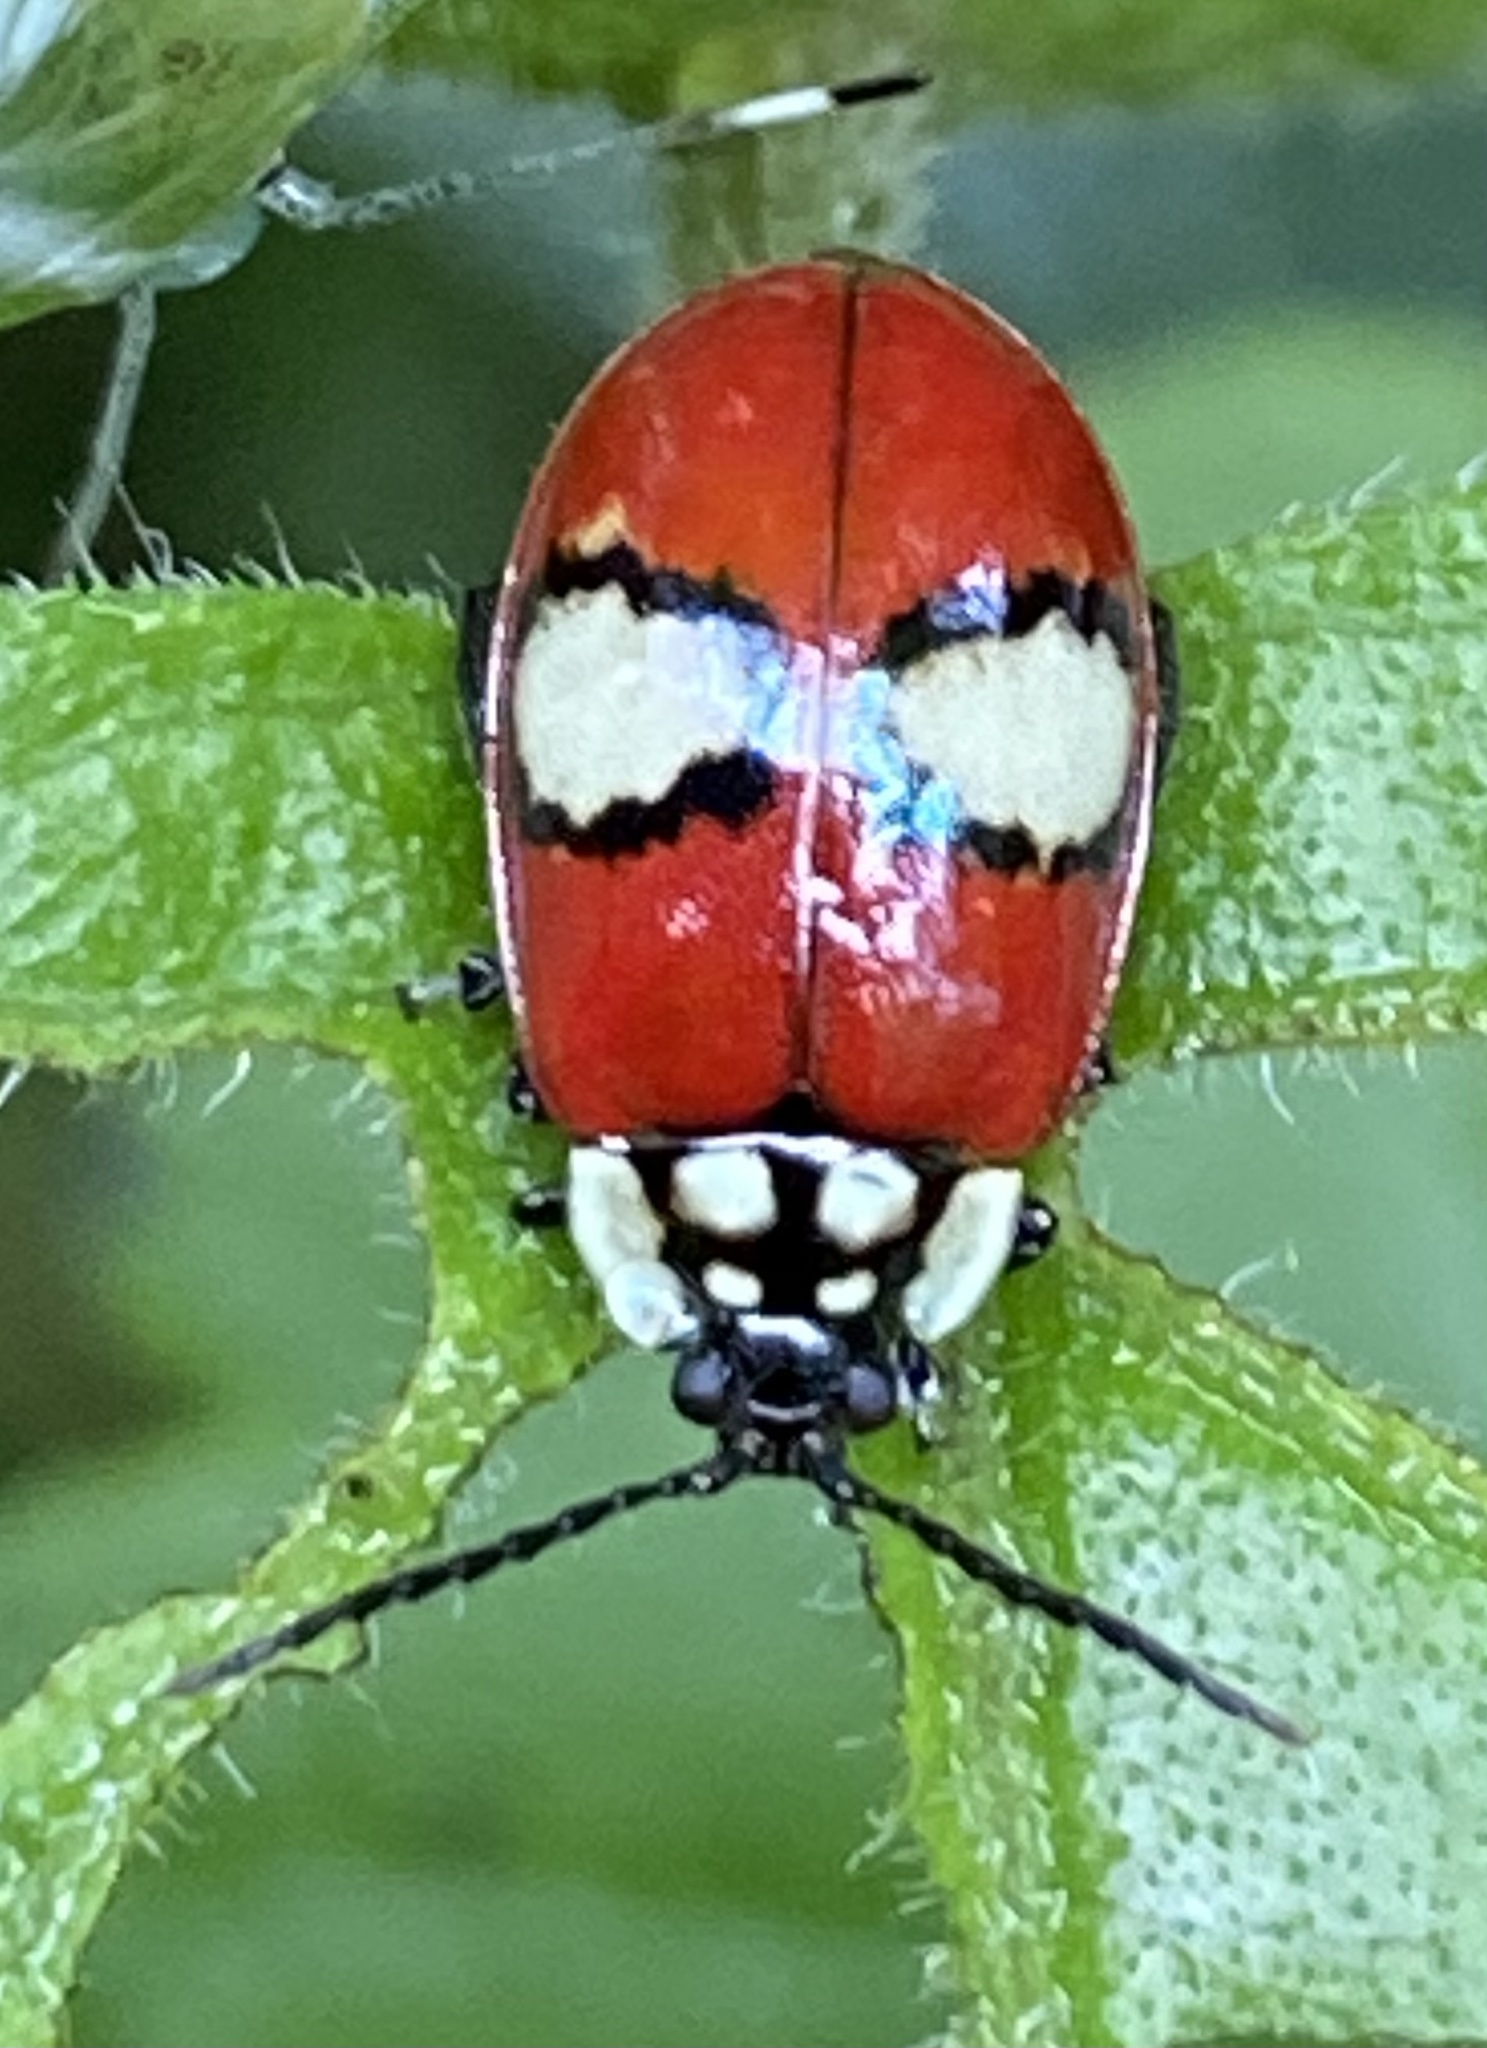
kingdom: Animalia
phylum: Arthropoda
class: Insecta
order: Coleoptera
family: Chrysomelidae
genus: Alagoasa
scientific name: Alagoasa
